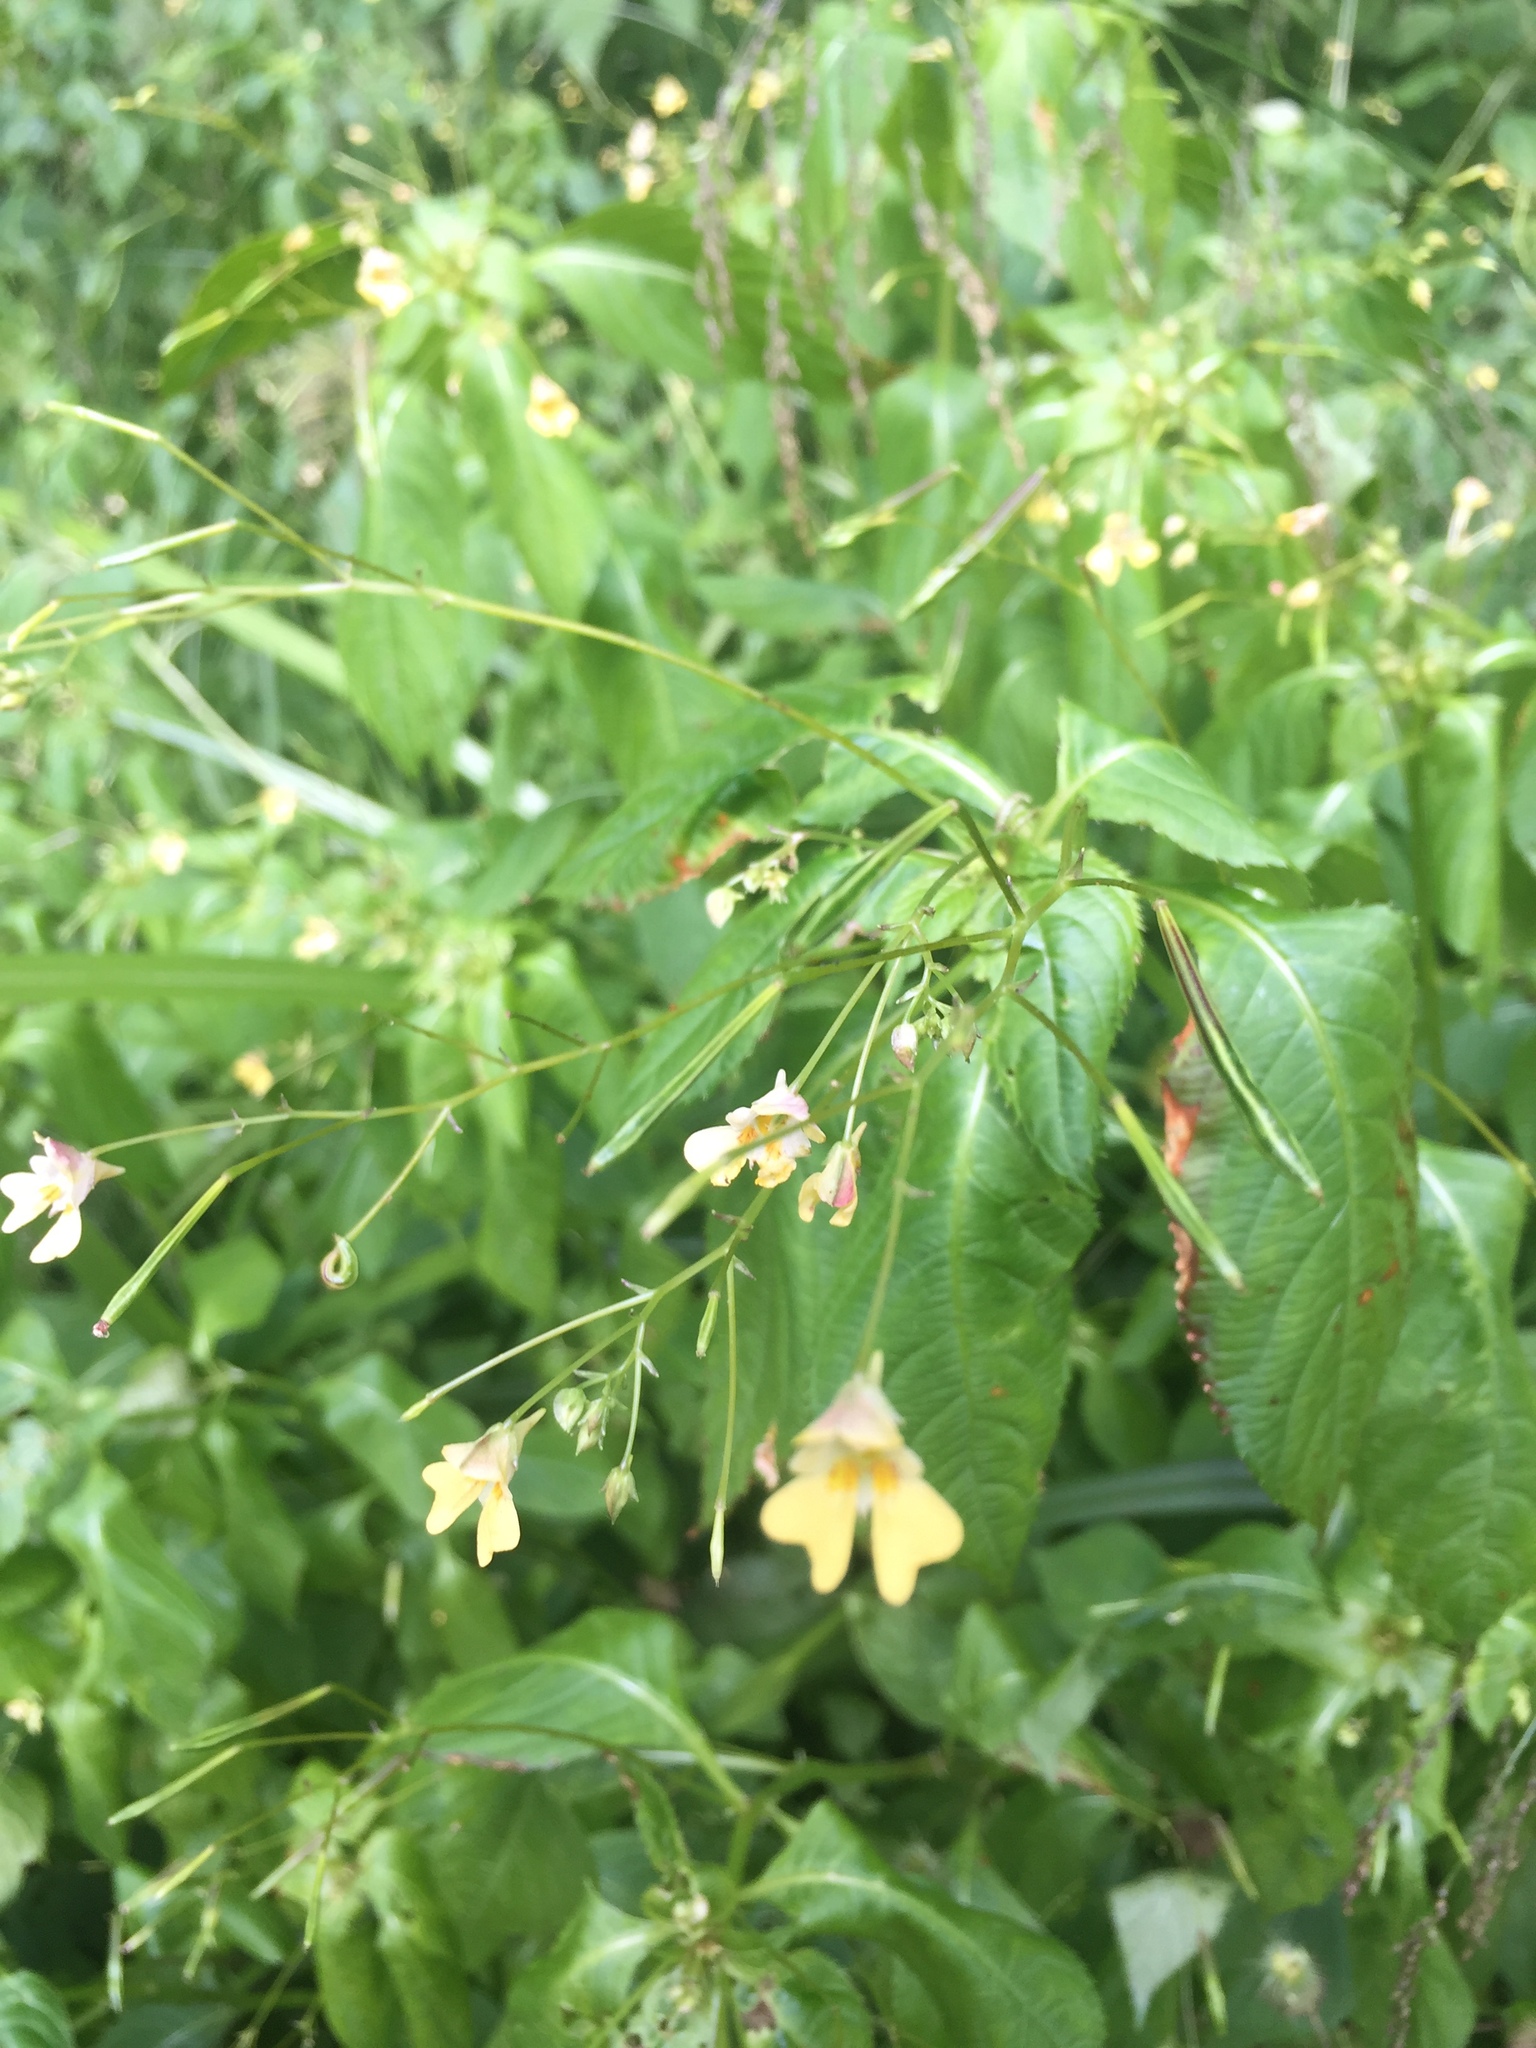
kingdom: Plantae
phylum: Tracheophyta
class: Magnoliopsida
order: Ericales
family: Balsaminaceae
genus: Impatiens
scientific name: Impatiens parviflora
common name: Small balsam
